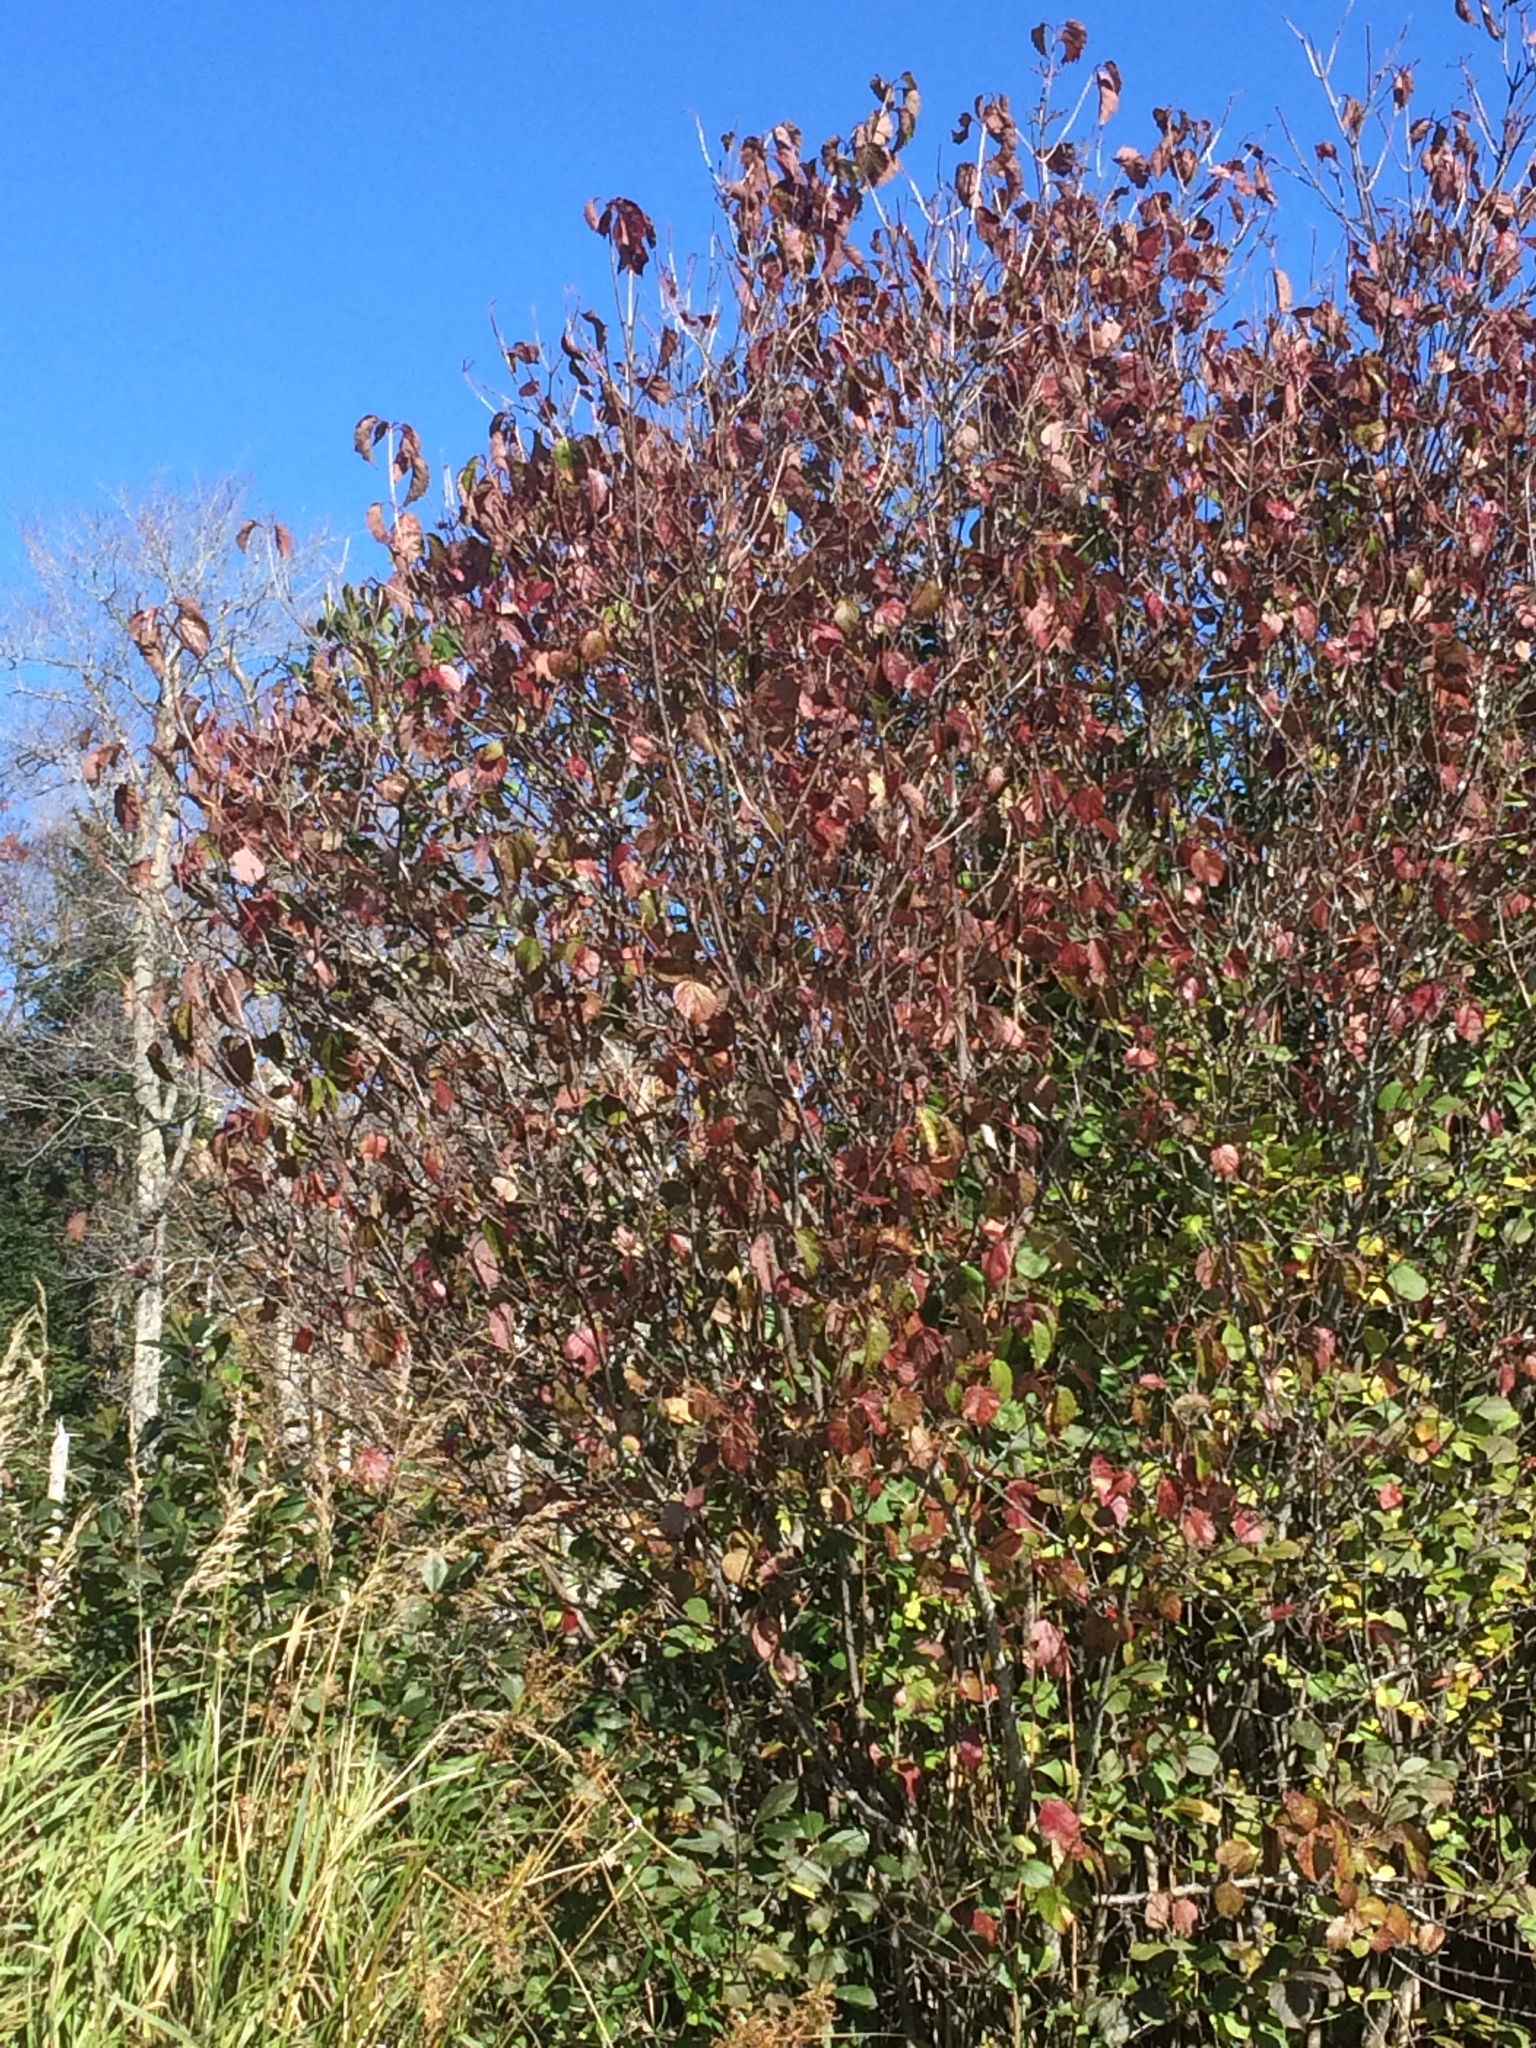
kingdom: Plantae
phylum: Tracheophyta
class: Magnoliopsida
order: Dipsacales
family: Viburnaceae
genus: Viburnum
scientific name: Viburnum dentatum
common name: Arrow-wood
